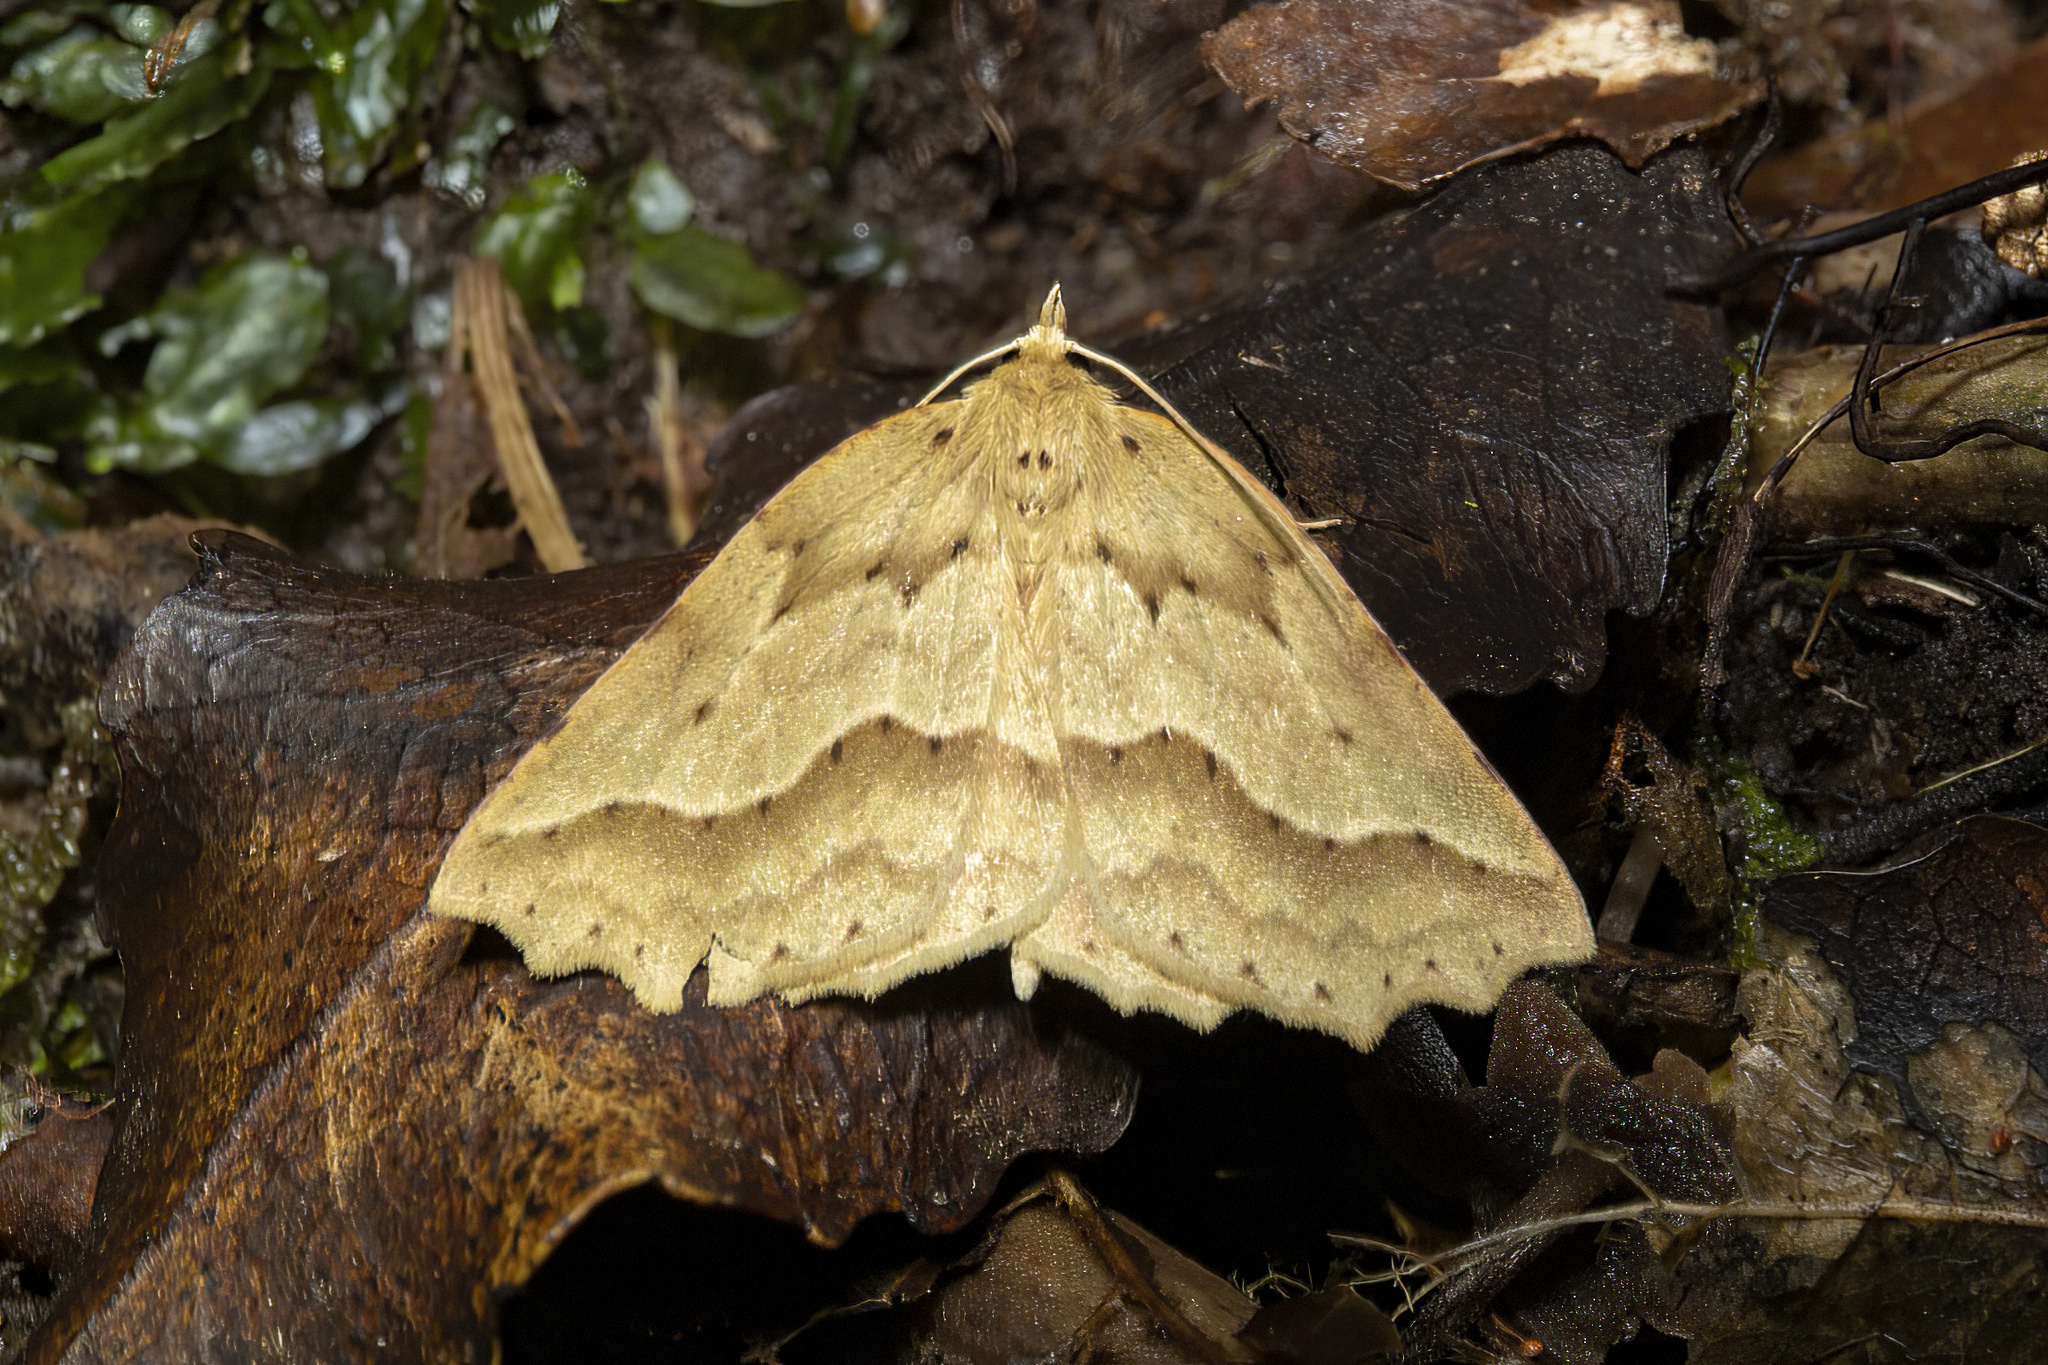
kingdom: Animalia
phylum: Arthropoda
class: Insecta
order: Lepidoptera
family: Geometridae
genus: Ischalis
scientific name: Ischalis variabilis
